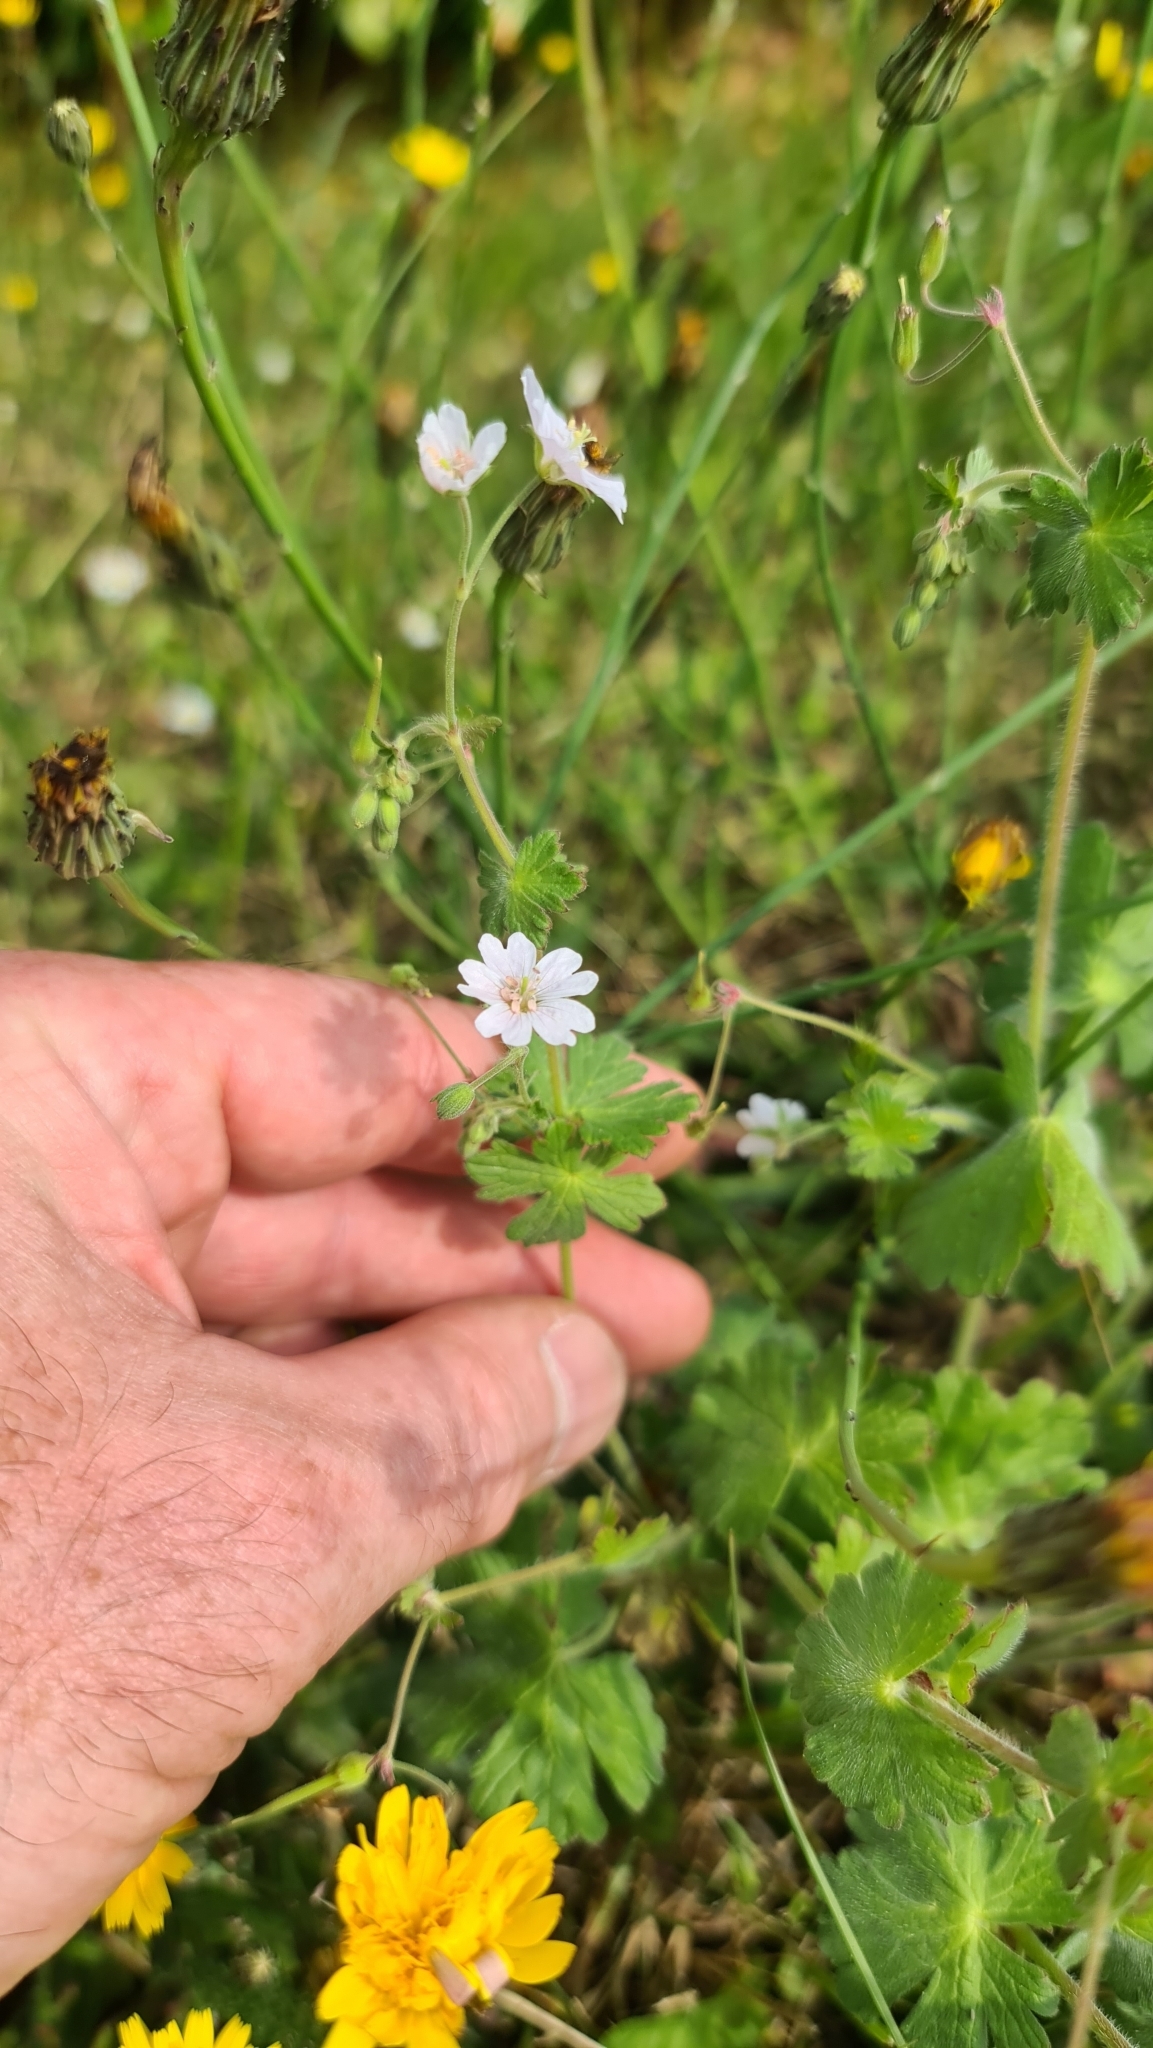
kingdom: Plantae
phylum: Tracheophyta
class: Magnoliopsida
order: Geraniales
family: Geraniaceae
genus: Geranium
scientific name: Geranium pyrenaicum
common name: Hedgerow crane's-bill
